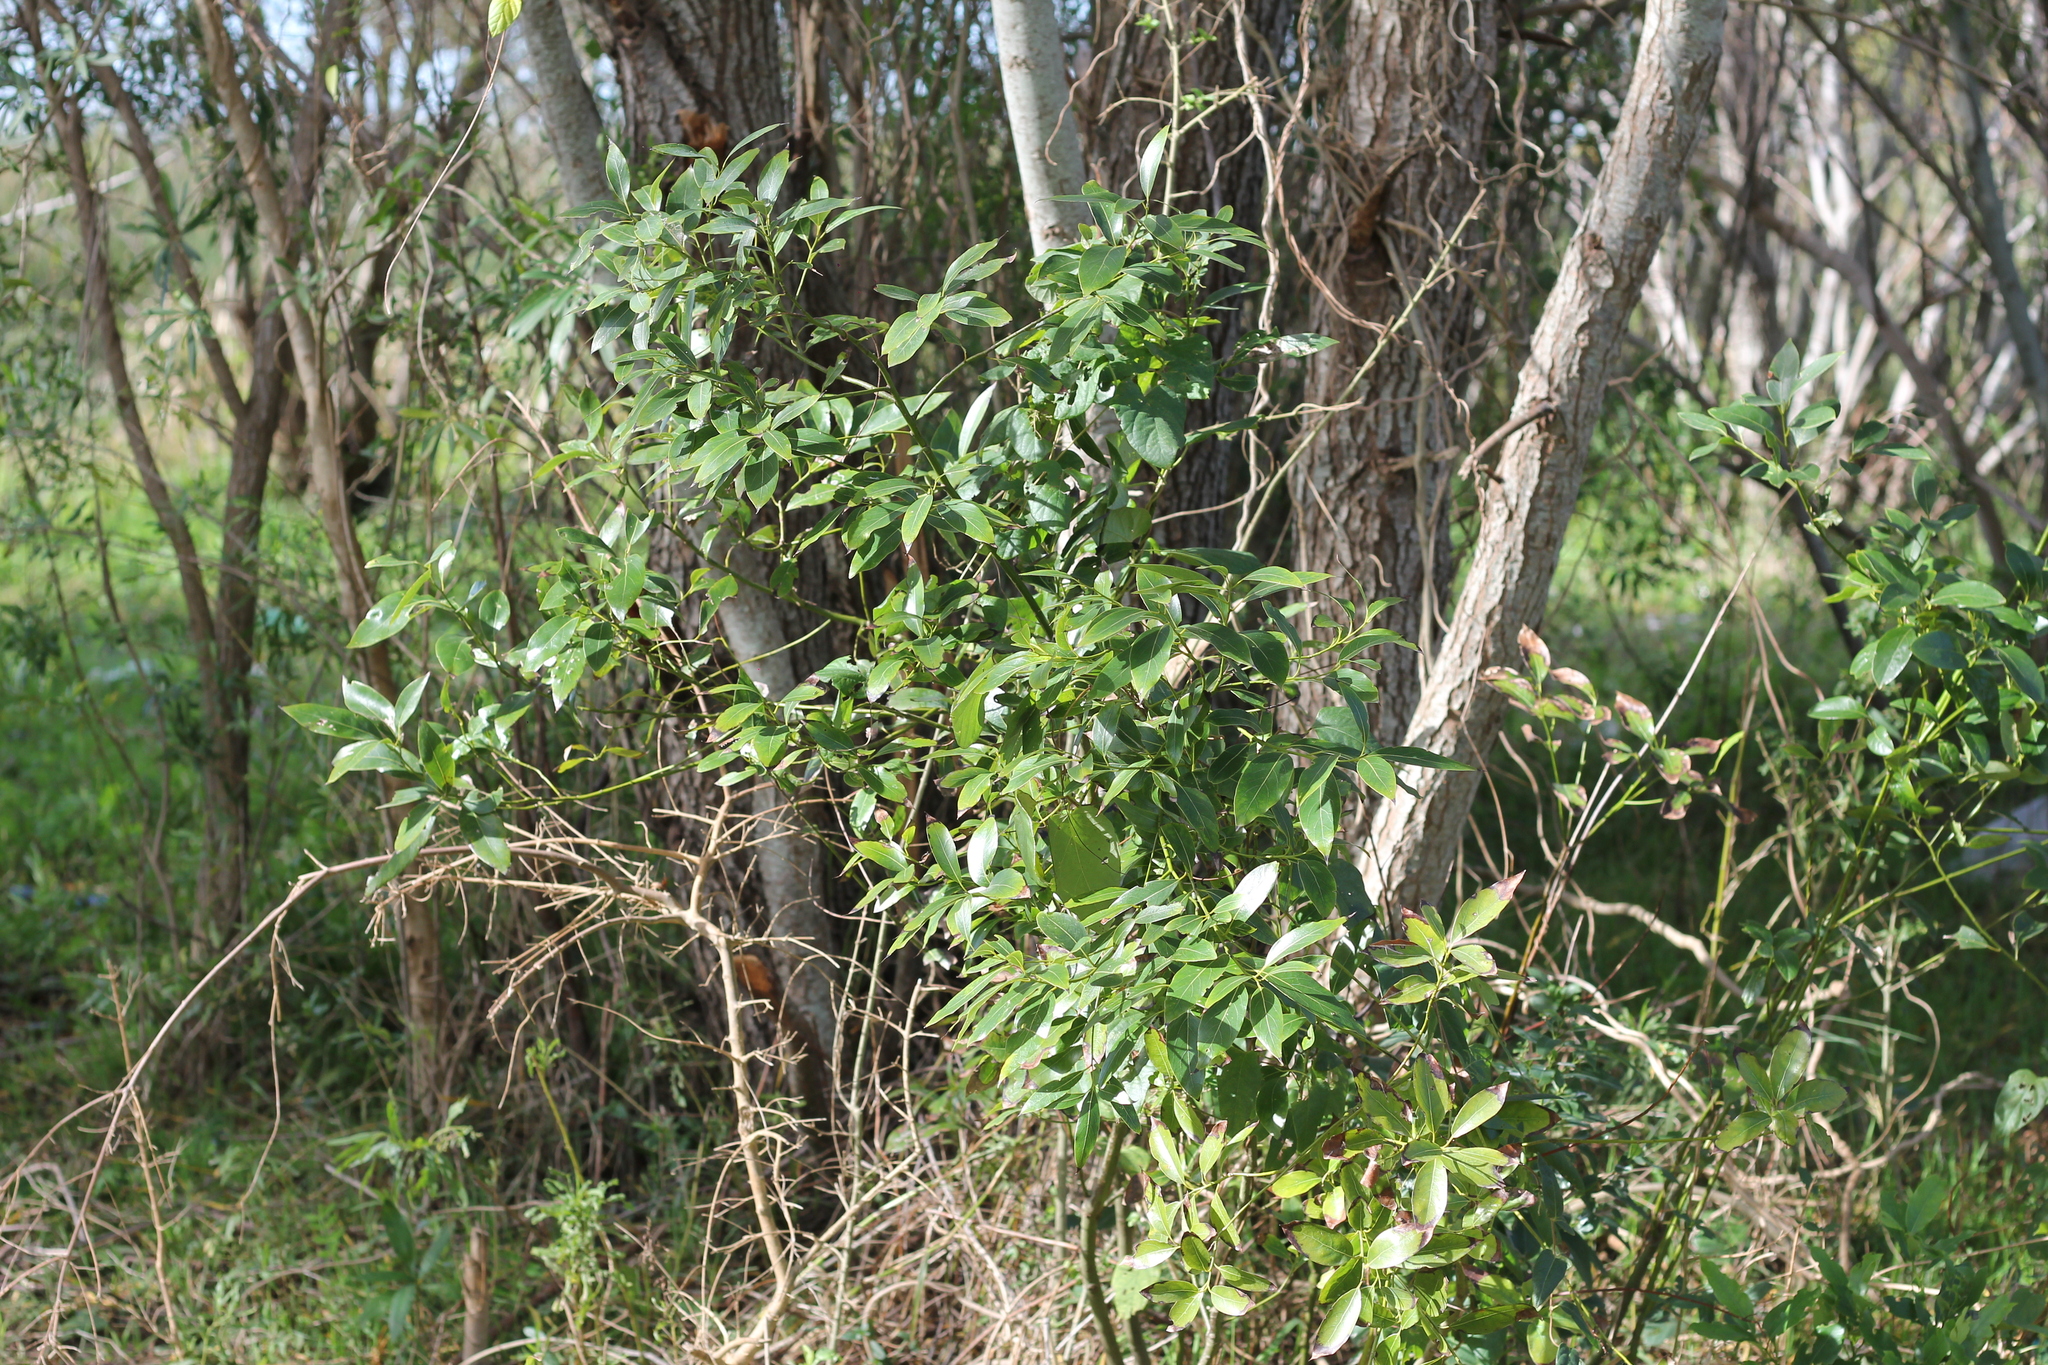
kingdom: Plantae
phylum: Tracheophyta
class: Magnoliopsida
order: Laurales
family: Lauraceae
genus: Ocotea
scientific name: Ocotea acutifolia
